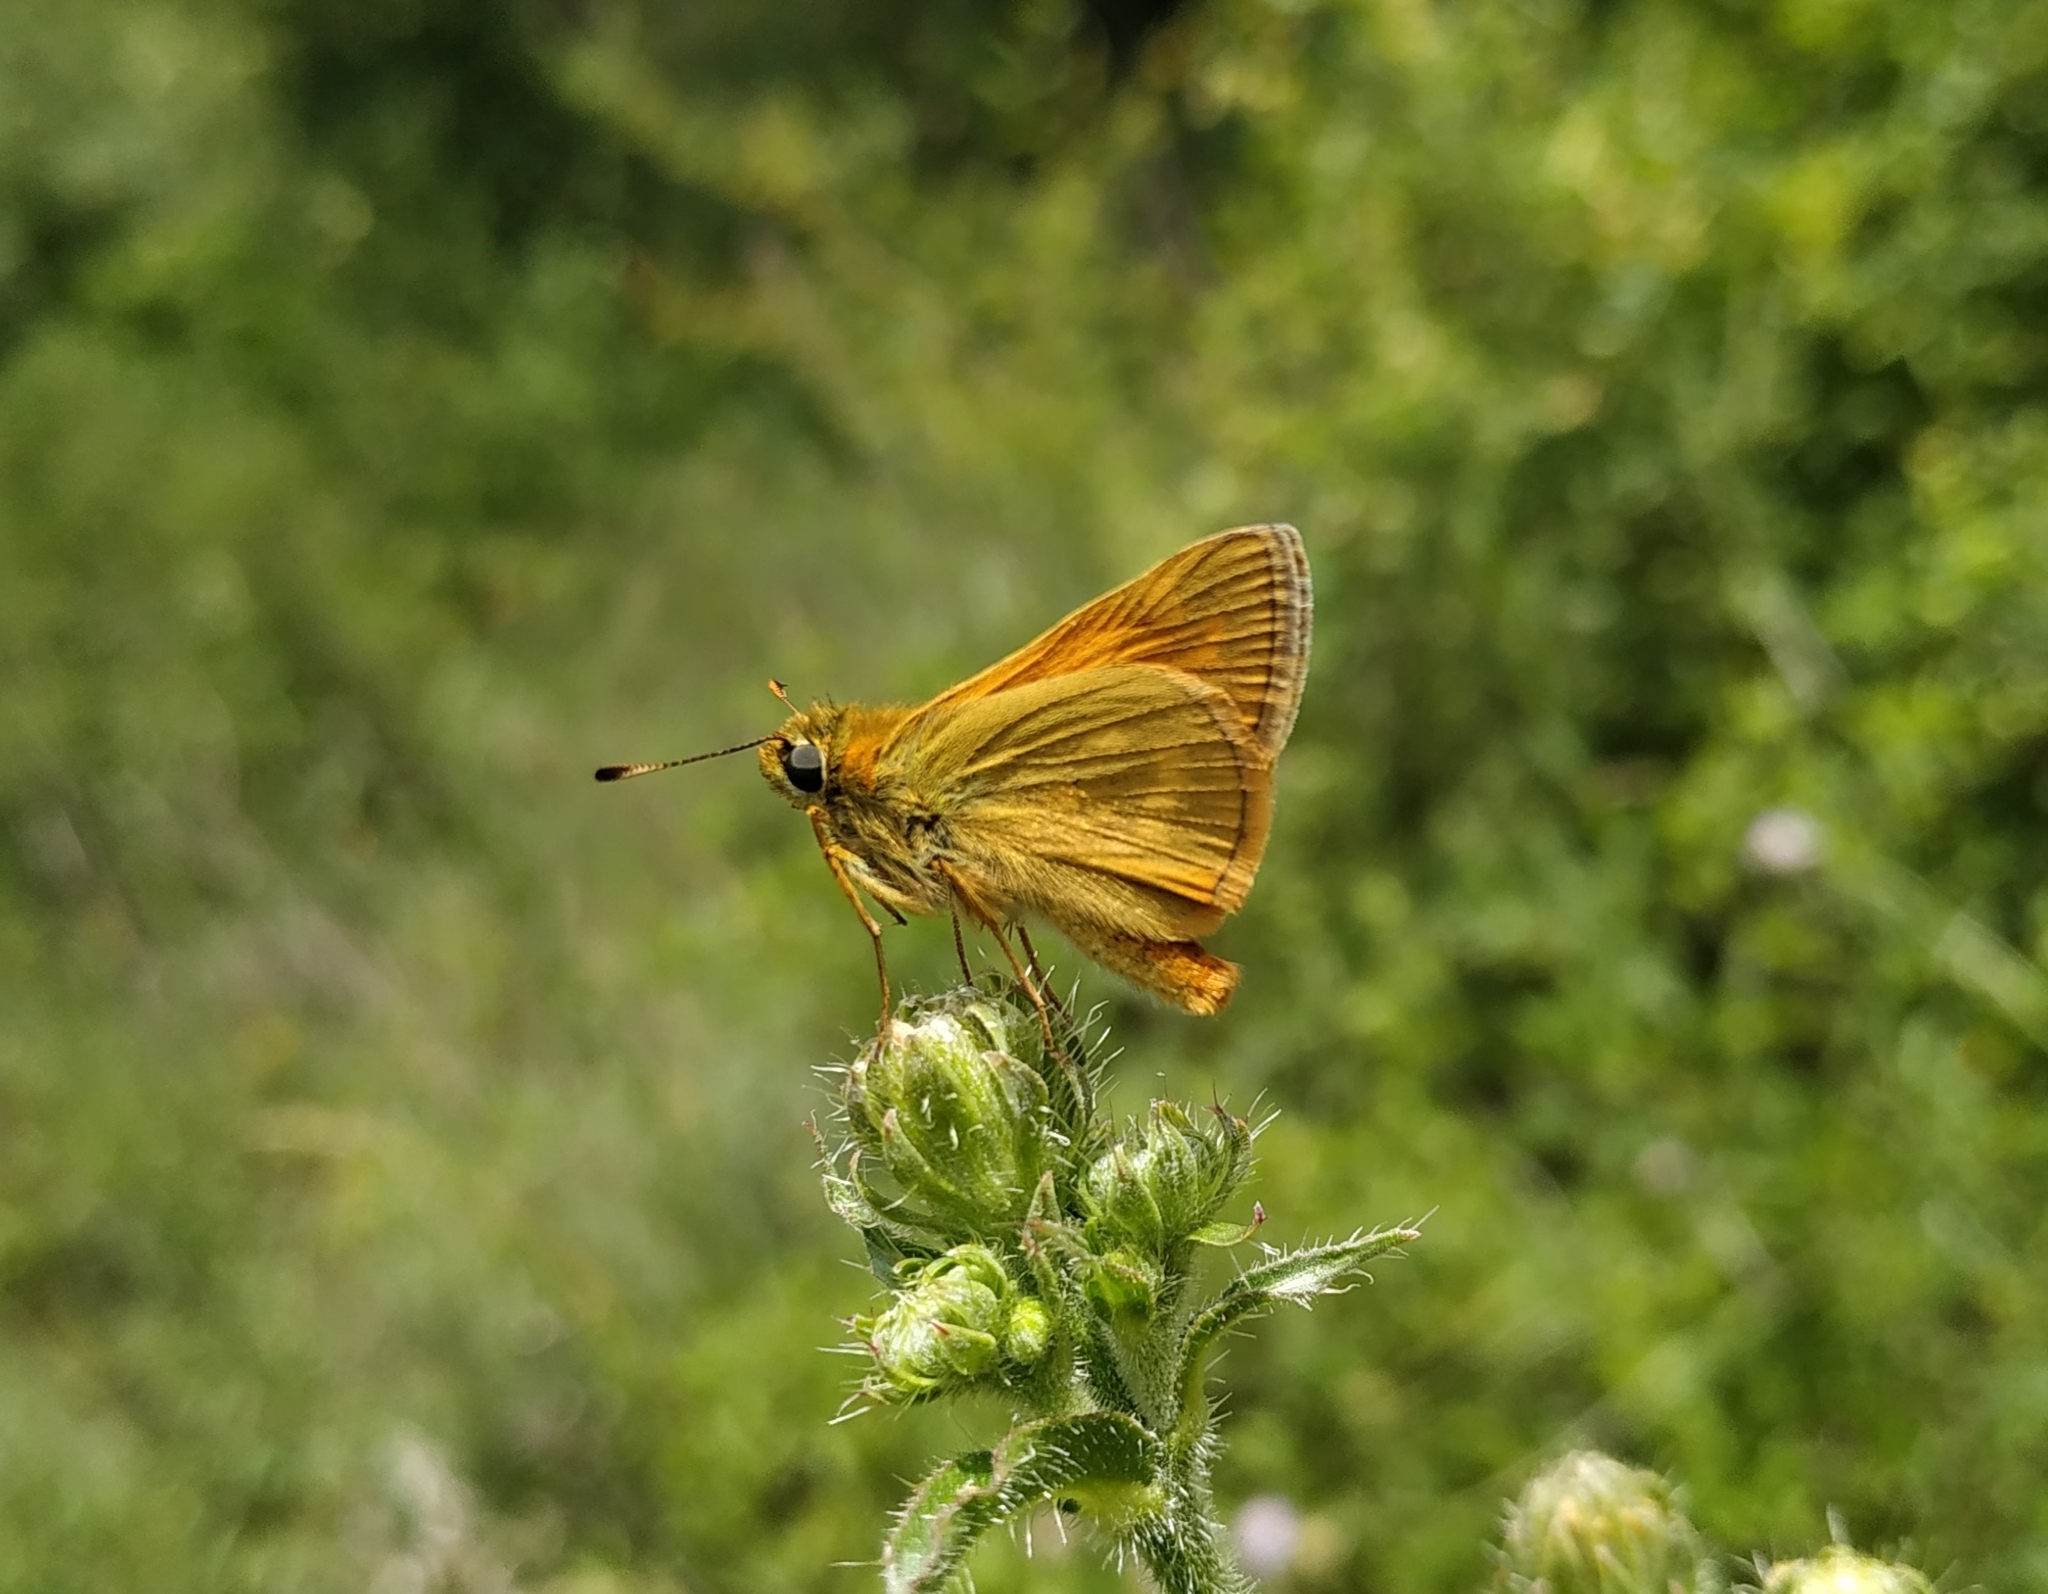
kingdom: Animalia
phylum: Arthropoda
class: Insecta
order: Lepidoptera
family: Hesperiidae
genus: Ochlodes
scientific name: Ochlodes venata
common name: Large skipper
